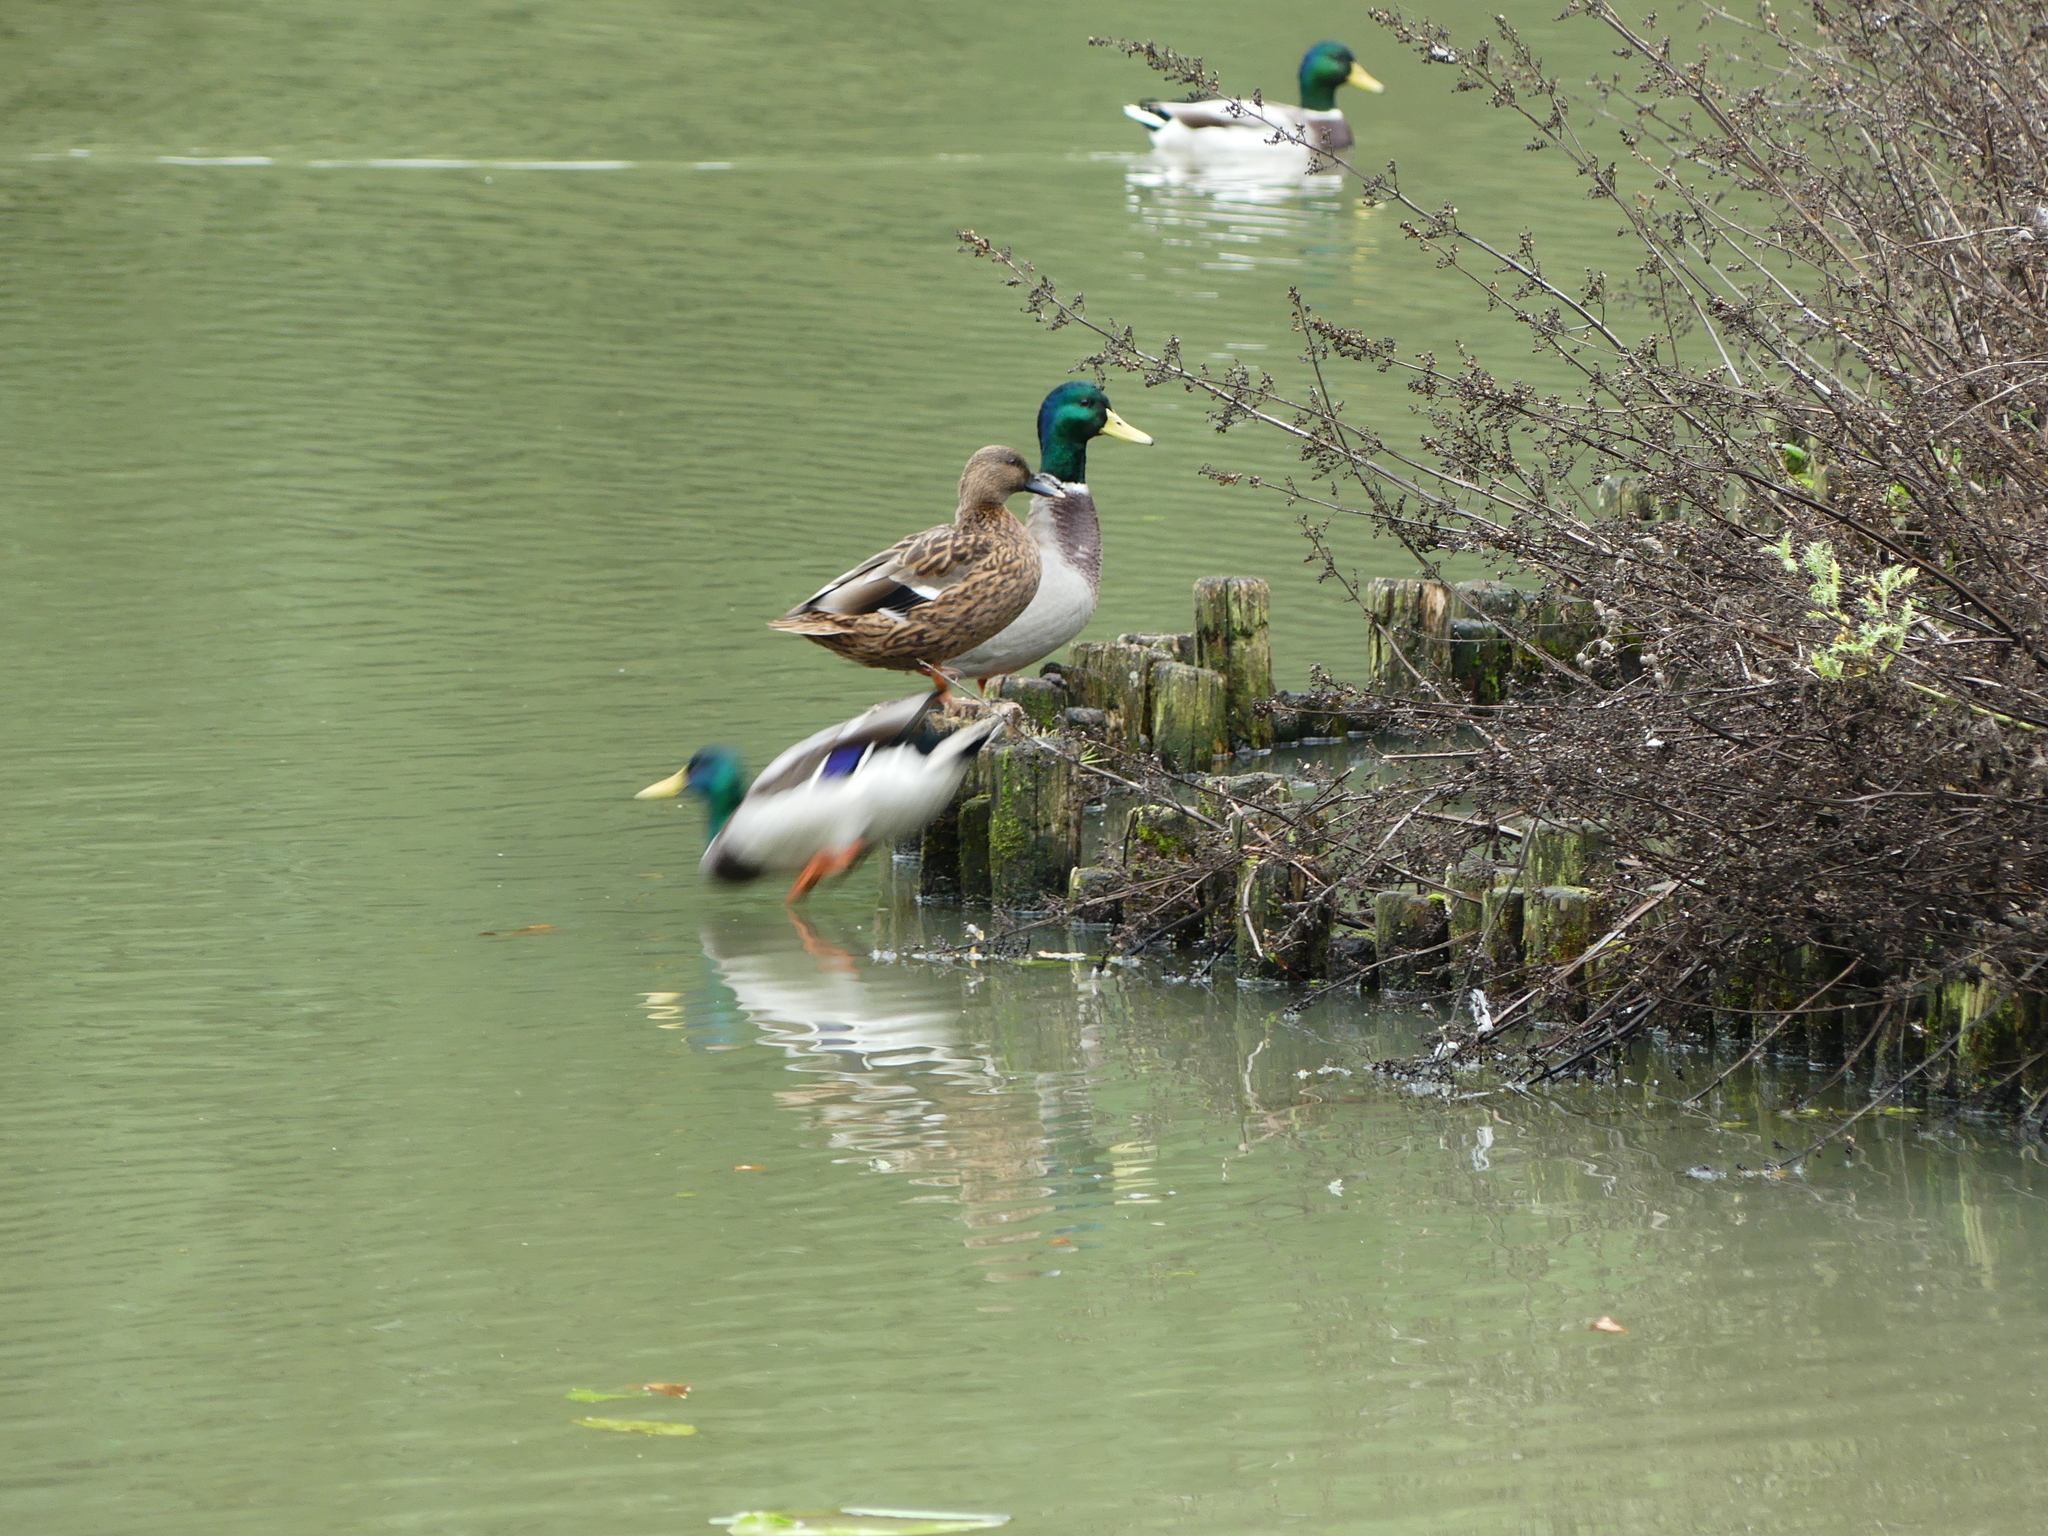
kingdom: Animalia
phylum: Chordata
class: Aves
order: Anseriformes
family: Anatidae
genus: Anas
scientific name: Anas platyrhynchos
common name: Mallard
